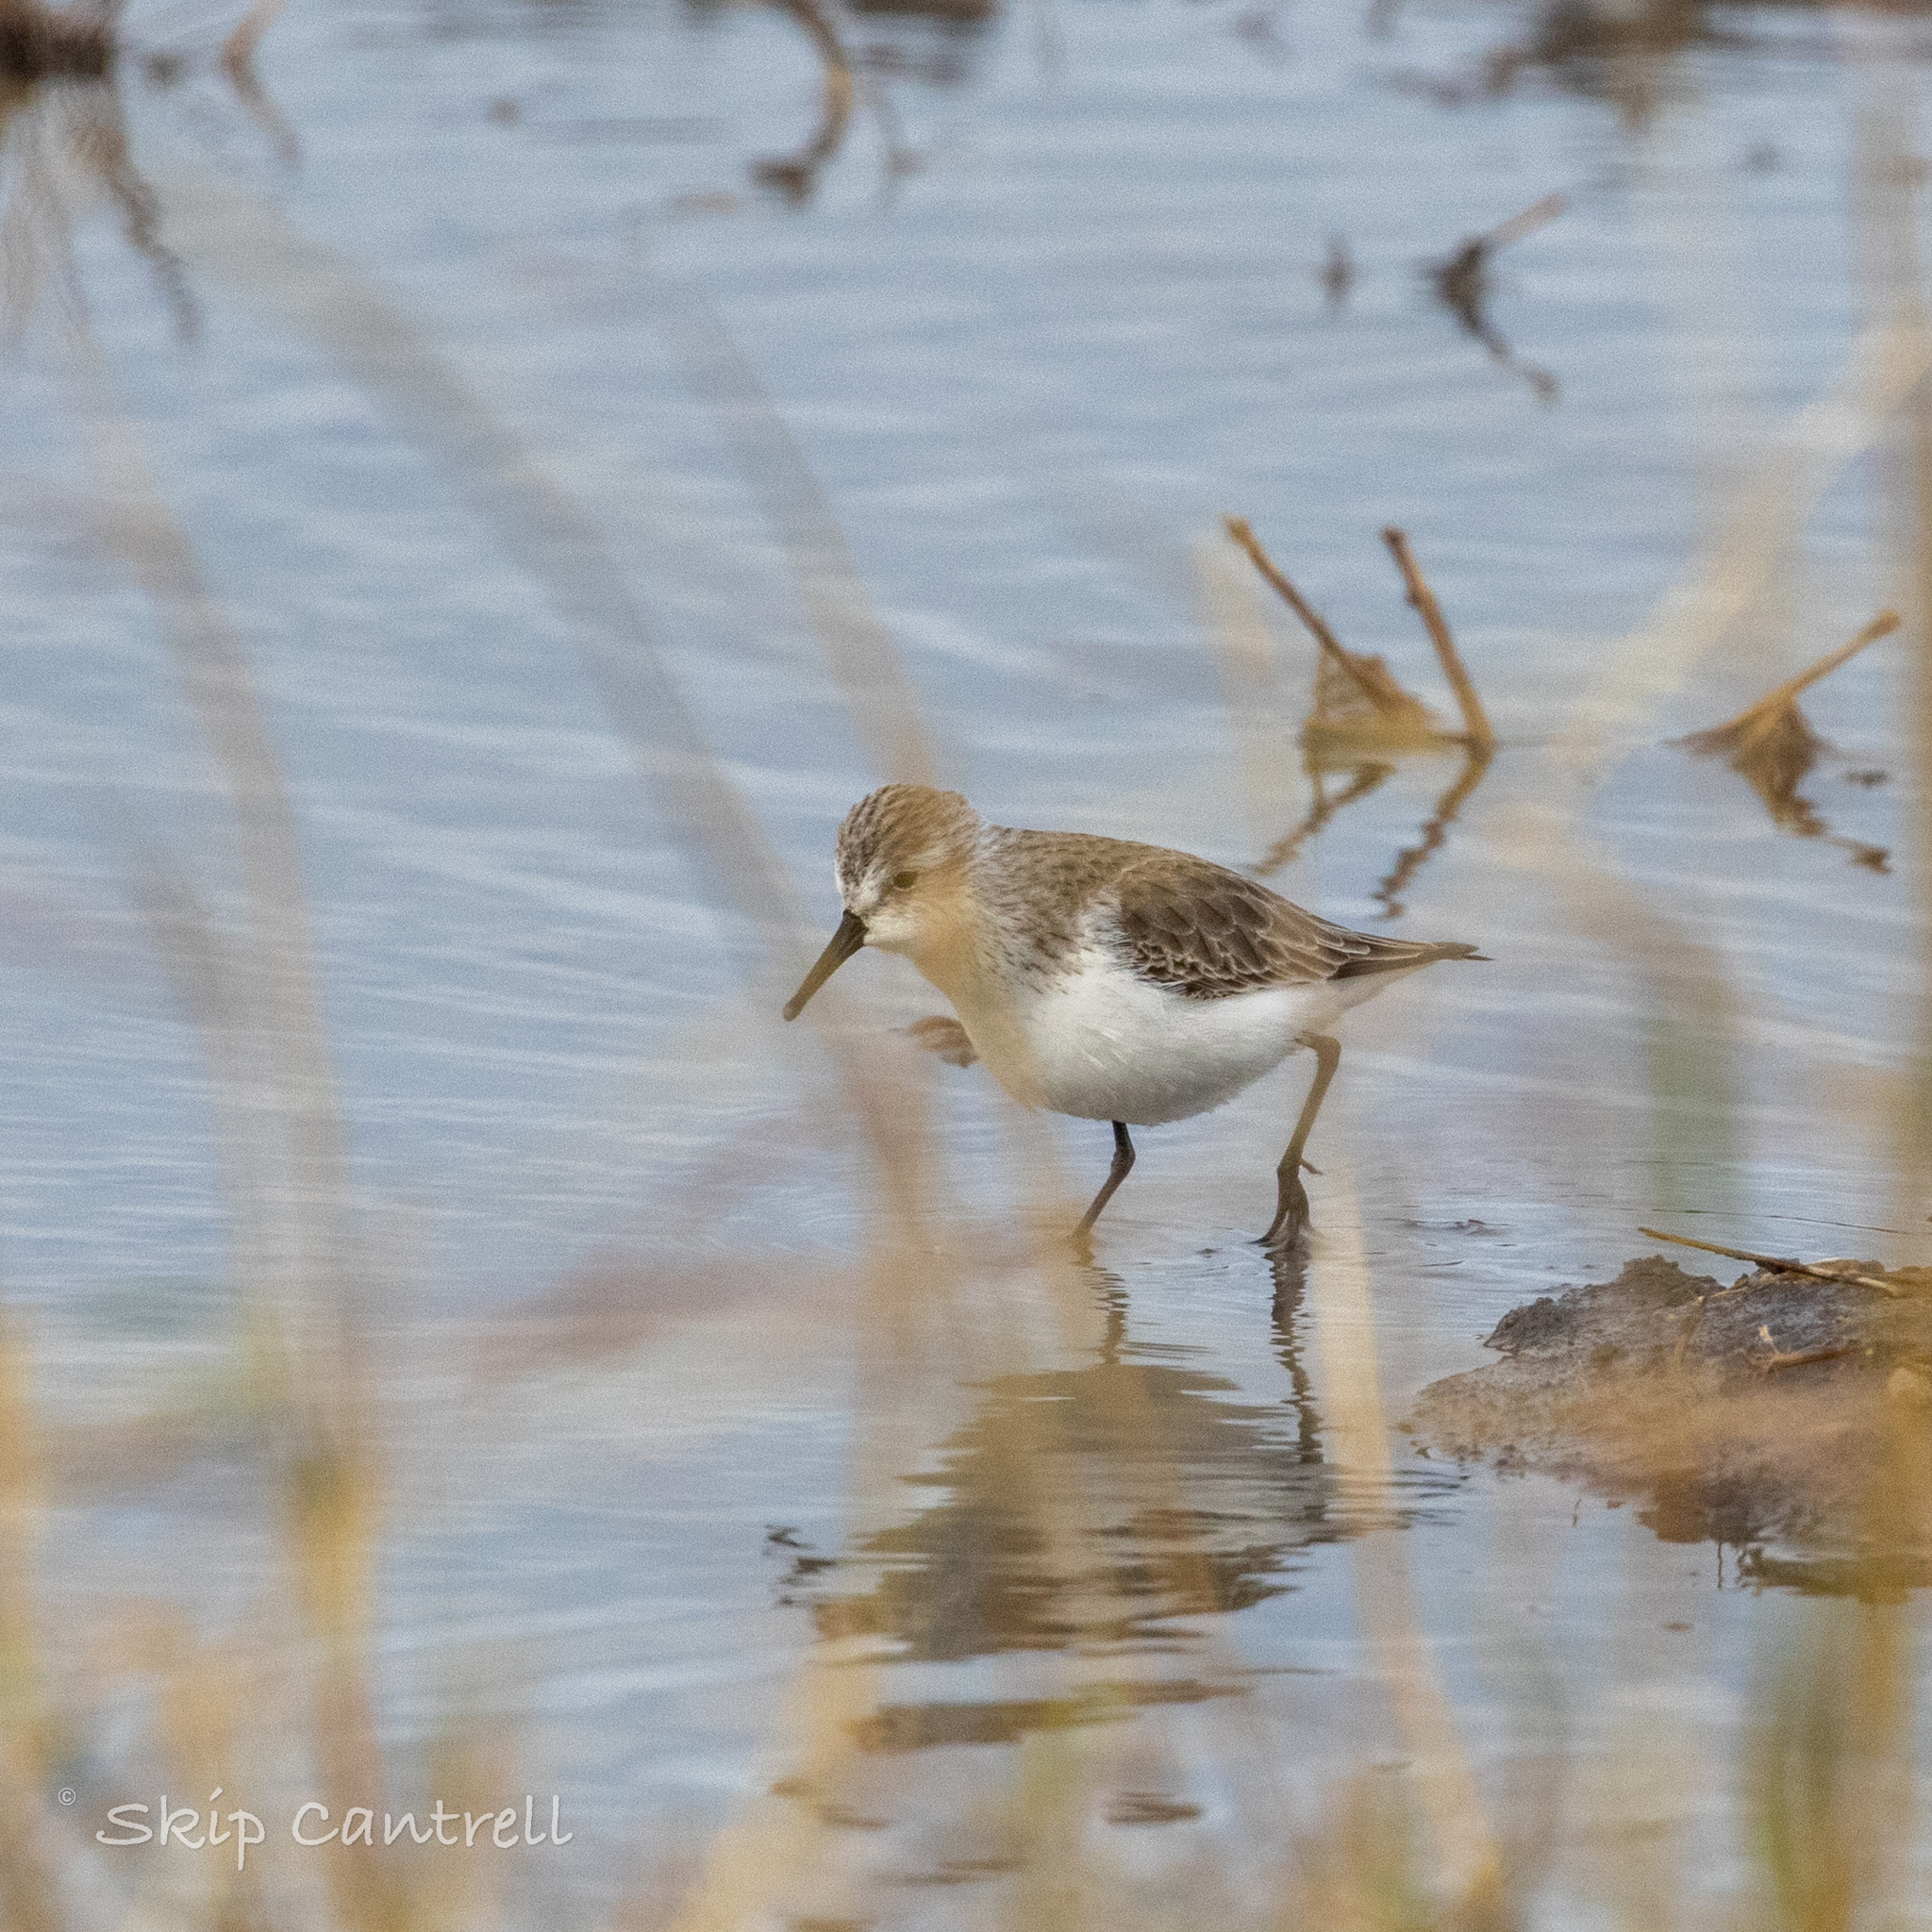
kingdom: Animalia
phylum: Chordata
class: Aves
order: Charadriiformes
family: Scolopacidae
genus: Calidris
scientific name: Calidris mauri
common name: Western sandpiper
